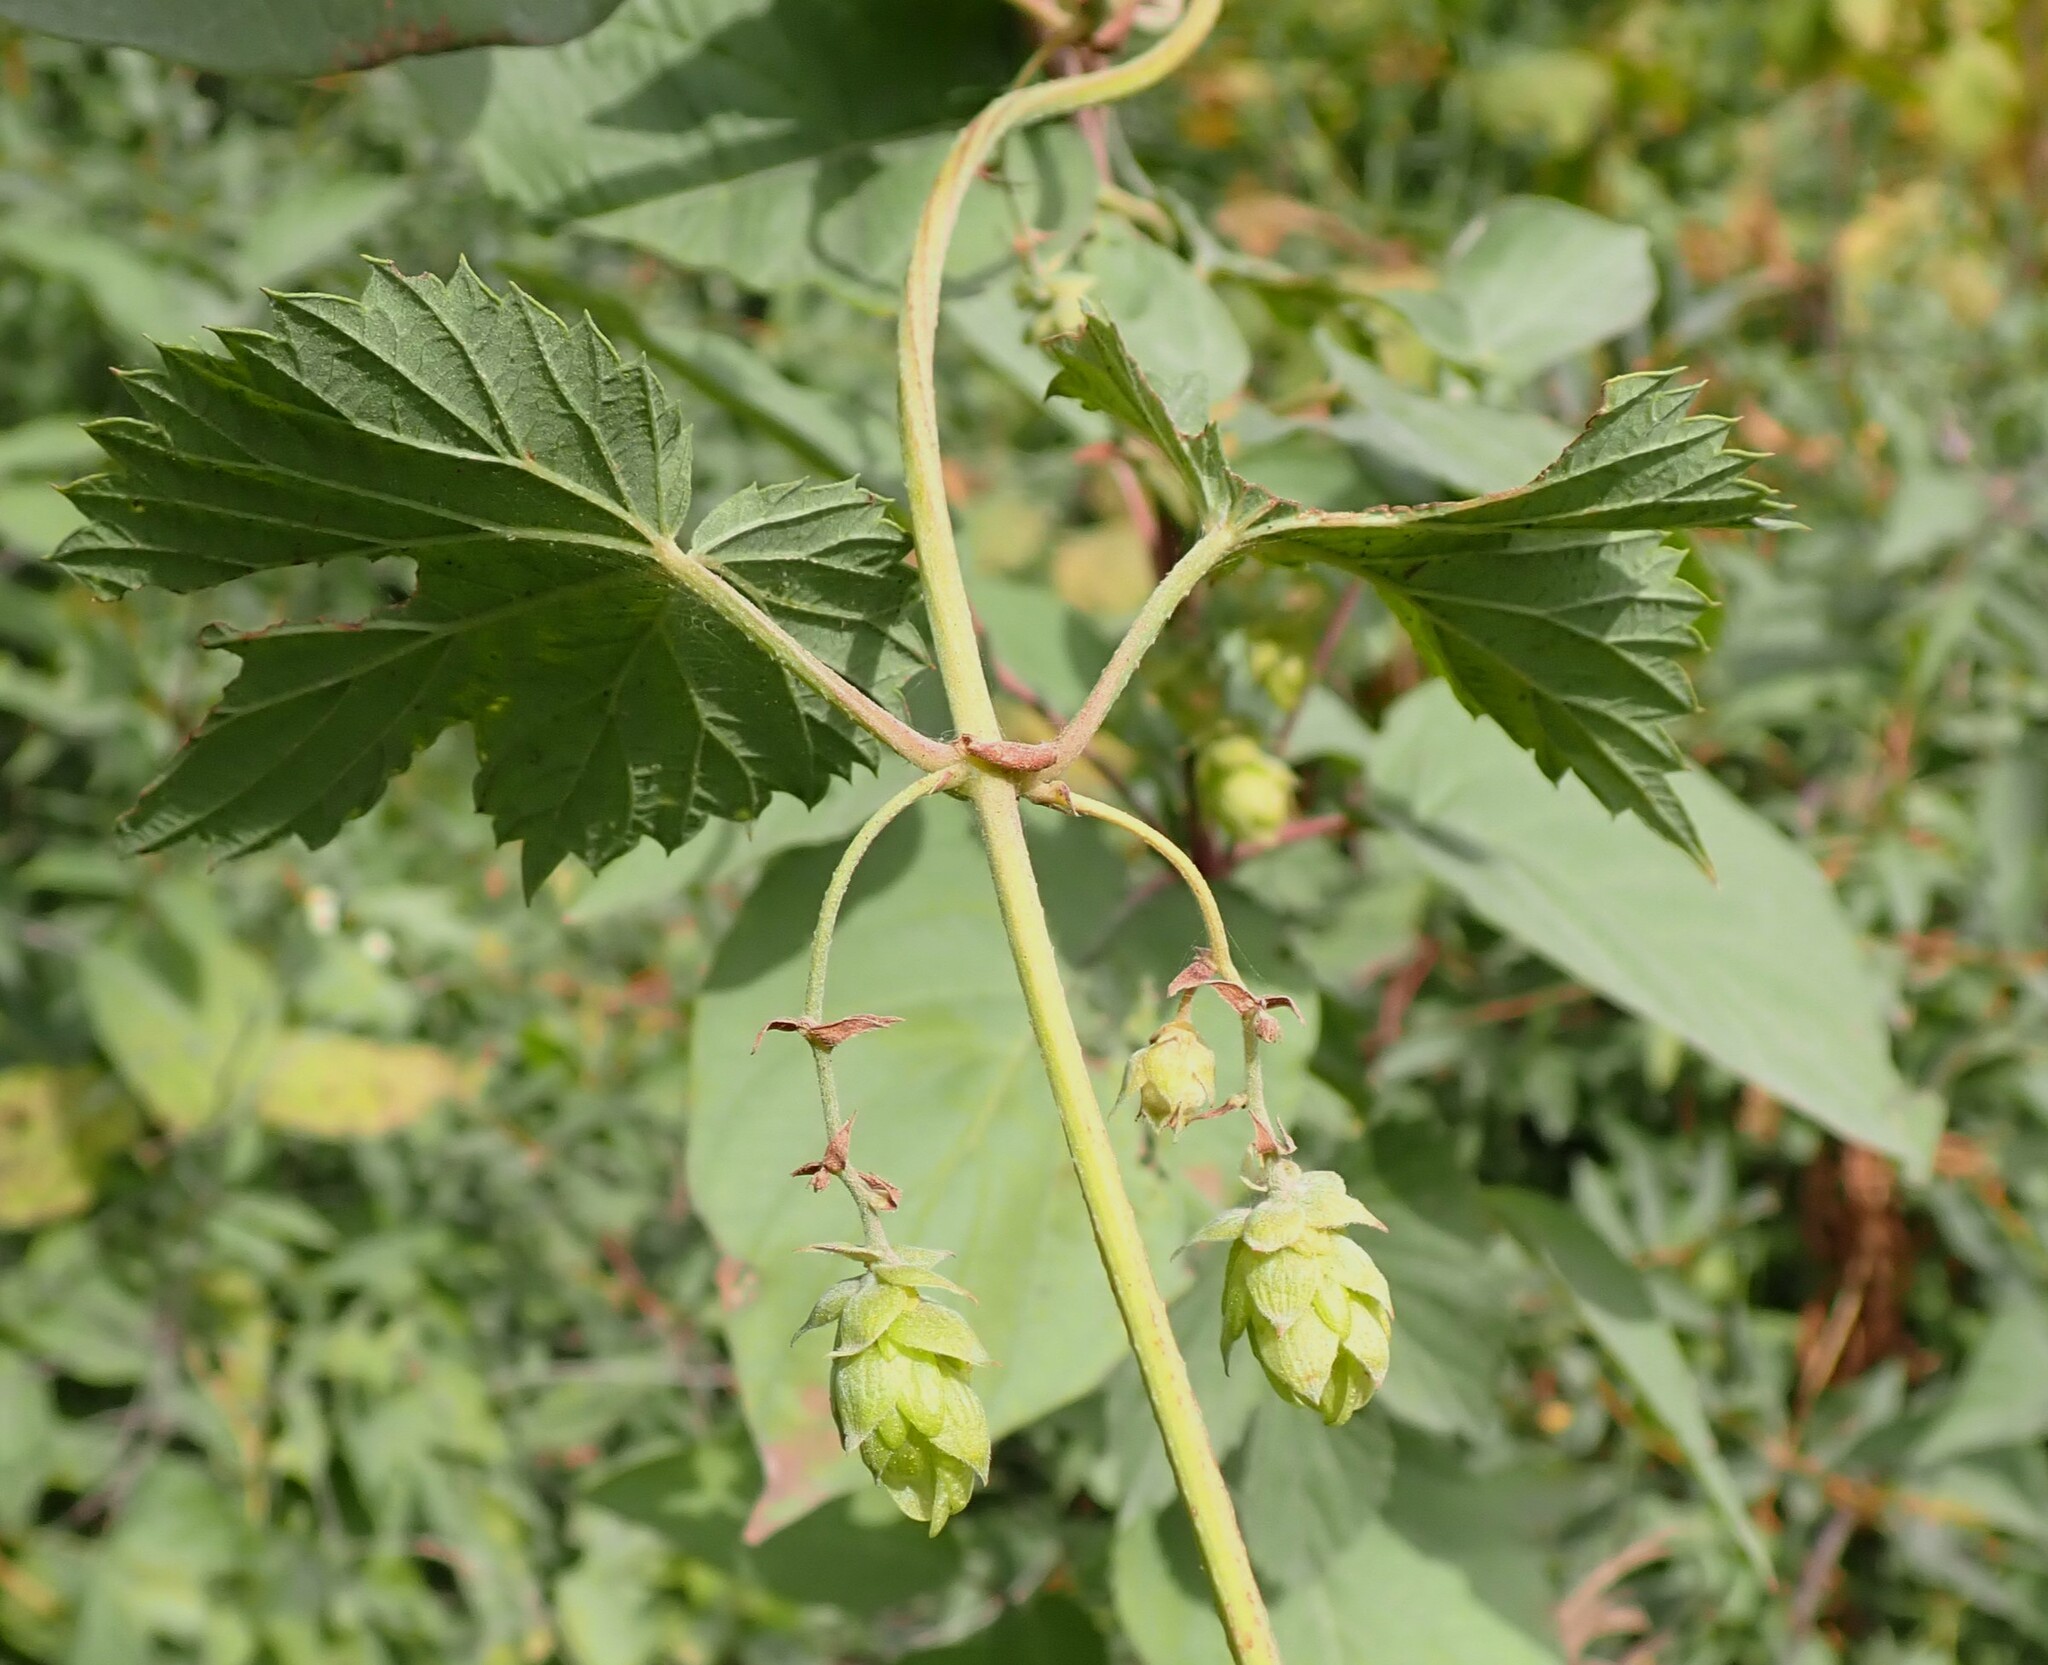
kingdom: Plantae
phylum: Tracheophyta
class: Magnoliopsida
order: Rosales
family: Cannabaceae
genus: Humulus
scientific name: Humulus lupulus
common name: Hop
